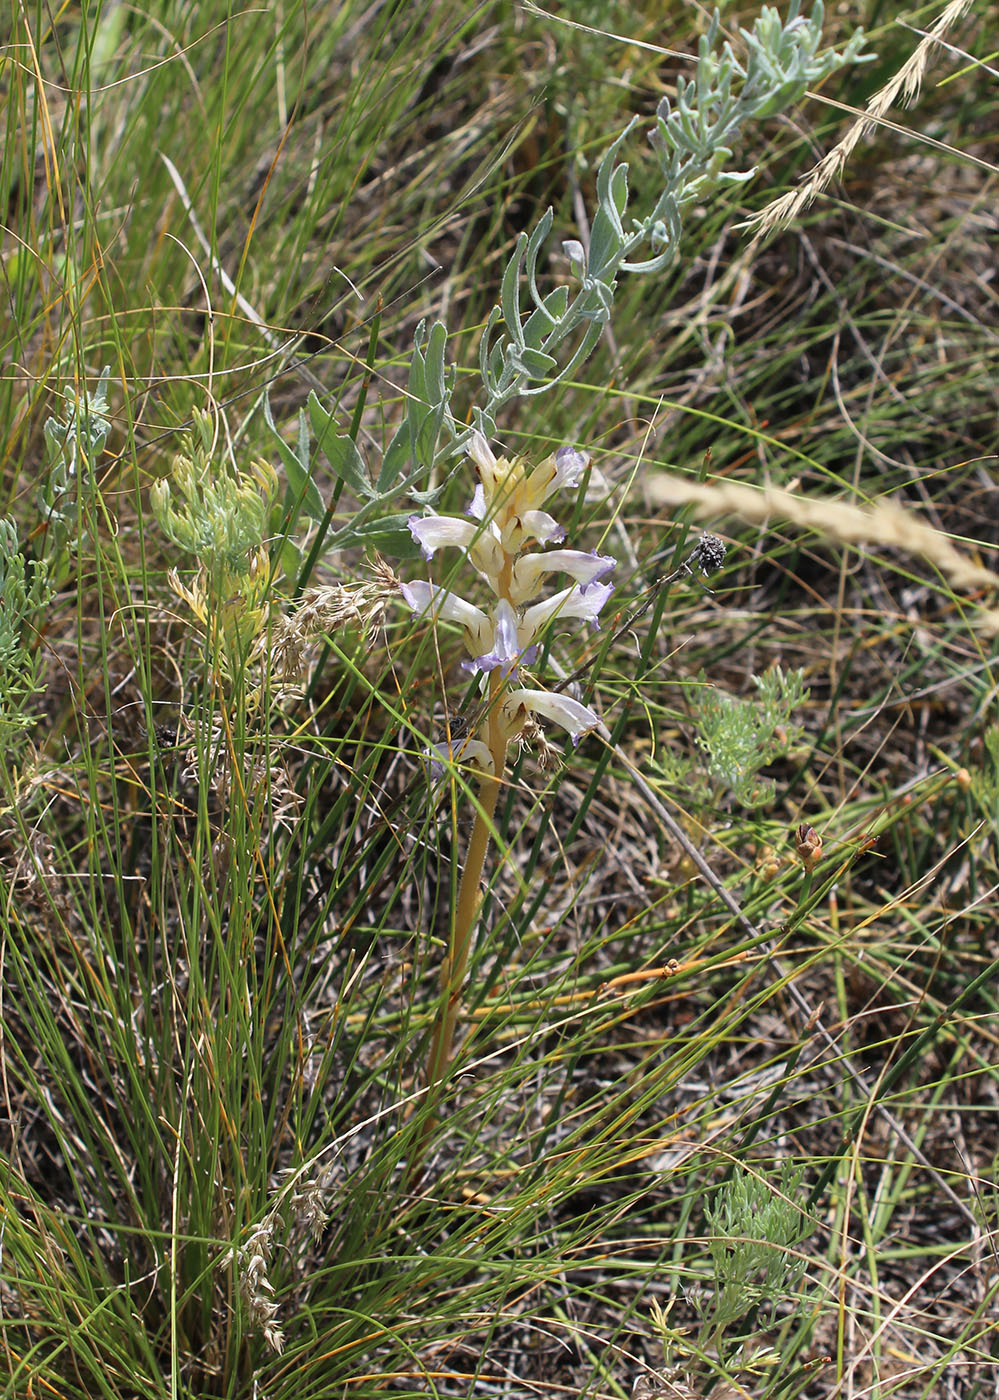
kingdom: Plantae
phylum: Tracheophyta
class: Magnoliopsida
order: Lamiales
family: Orobanchaceae
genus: Orobanche
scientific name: Orobanche cumana
